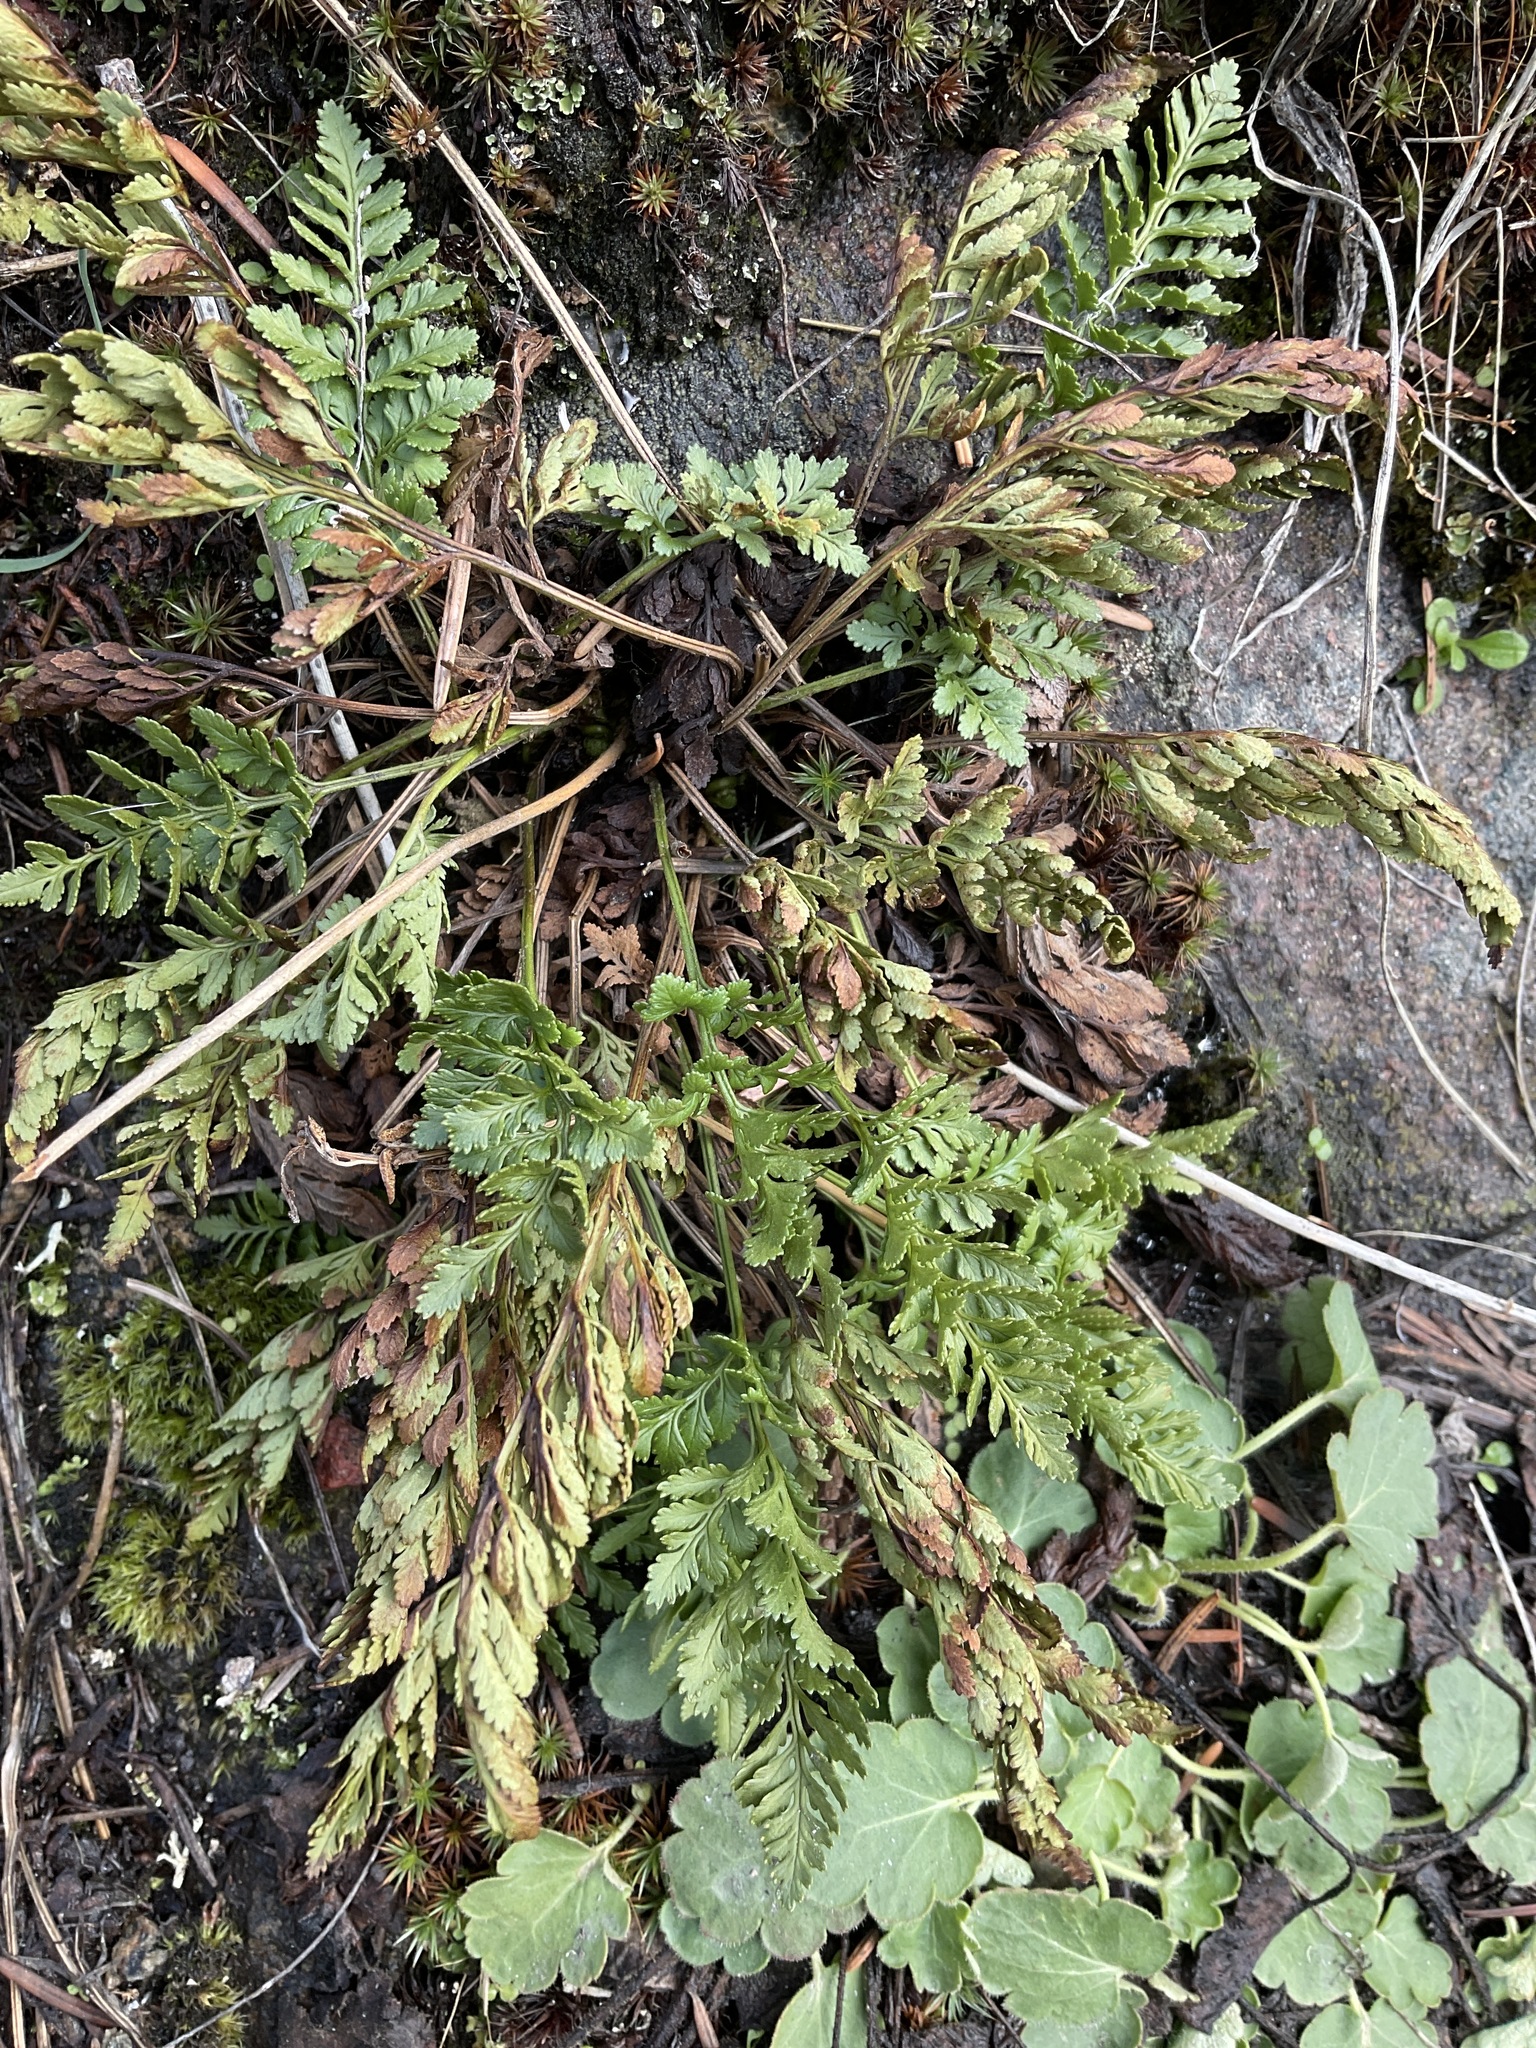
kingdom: Plantae
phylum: Tracheophyta
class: Polypodiopsida
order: Polypodiales
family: Pteridaceae
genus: Cryptogramma
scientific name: Cryptogramma acrostichoides
